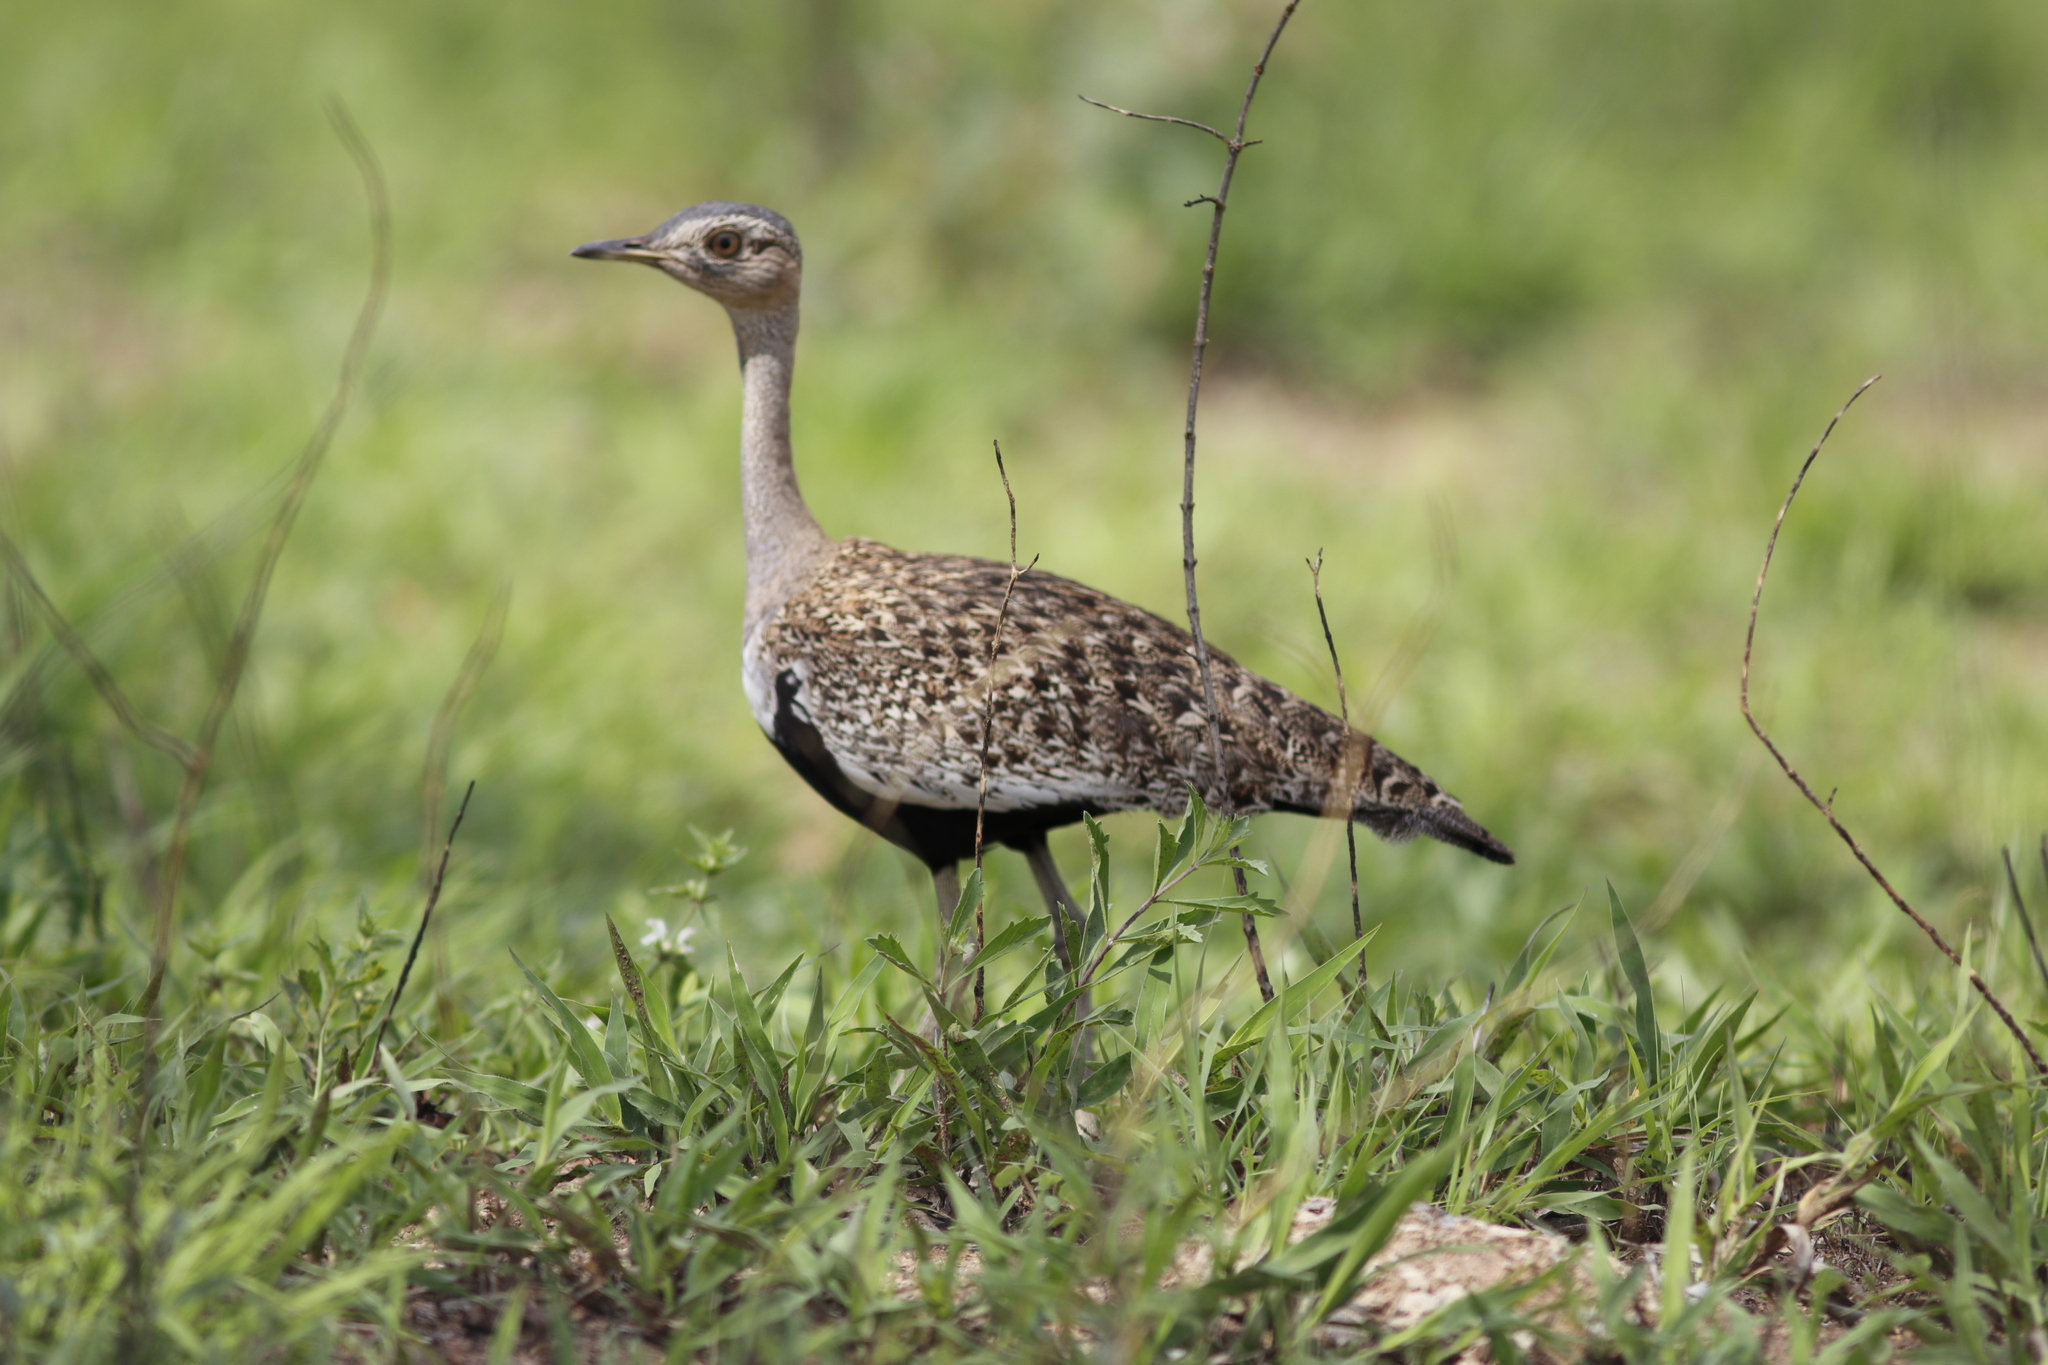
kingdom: Animalia
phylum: Chordata
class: Aves
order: Otidiformes
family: Otididae
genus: Lophotis
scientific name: Lophotis ruficrista
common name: Red-crested korhaan
